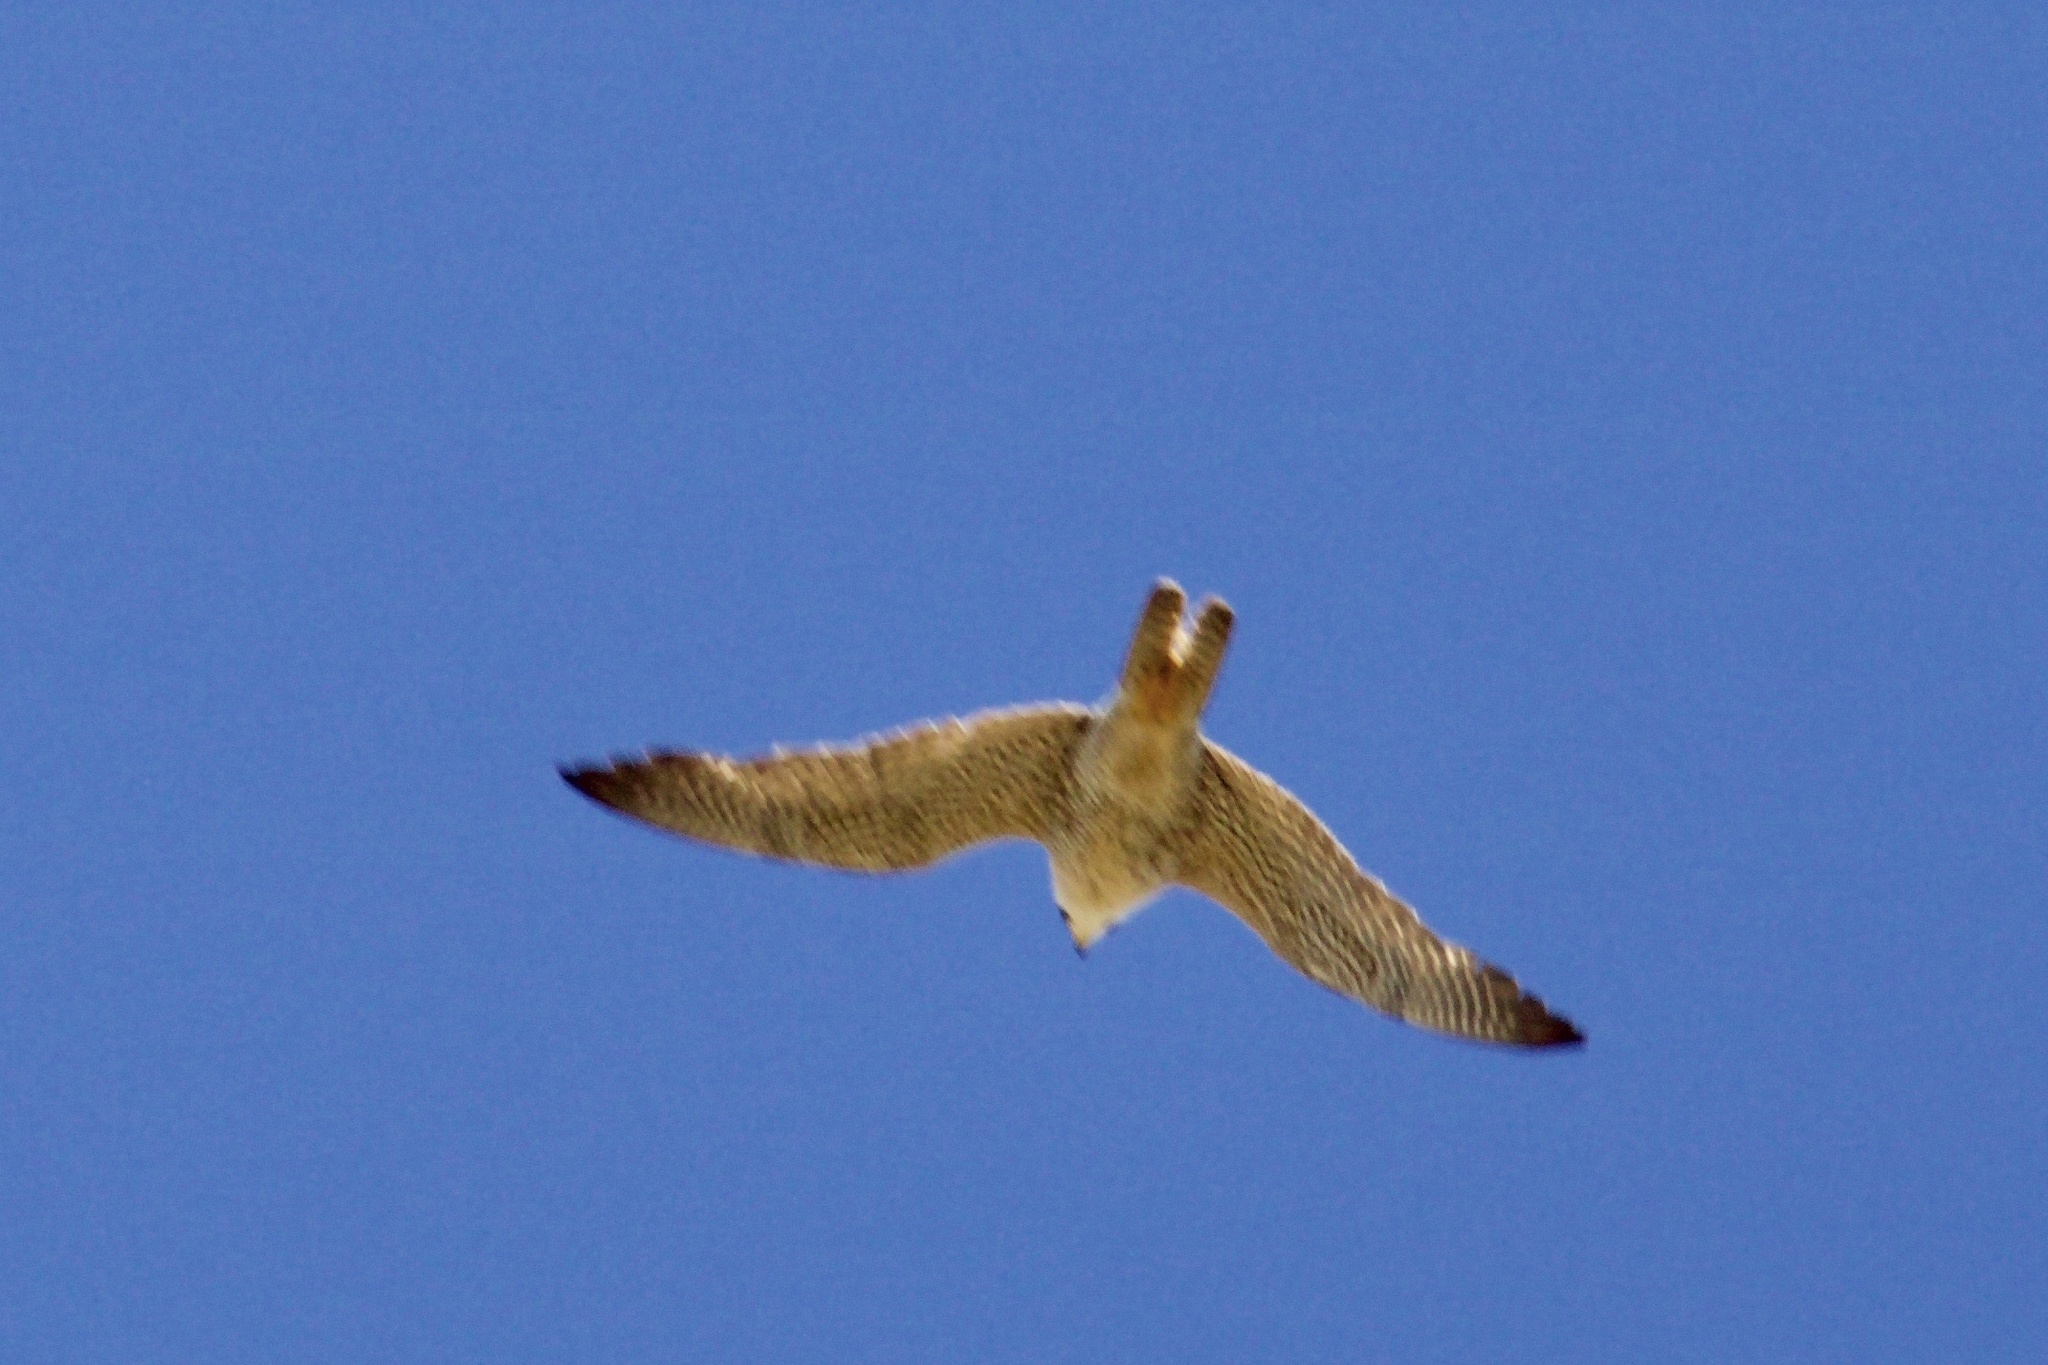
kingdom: Animalia
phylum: Chordata
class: Aves
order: Falconiformes
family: Falconidae
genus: Falco
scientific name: Falco peregrinus
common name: Peregrine falcon
